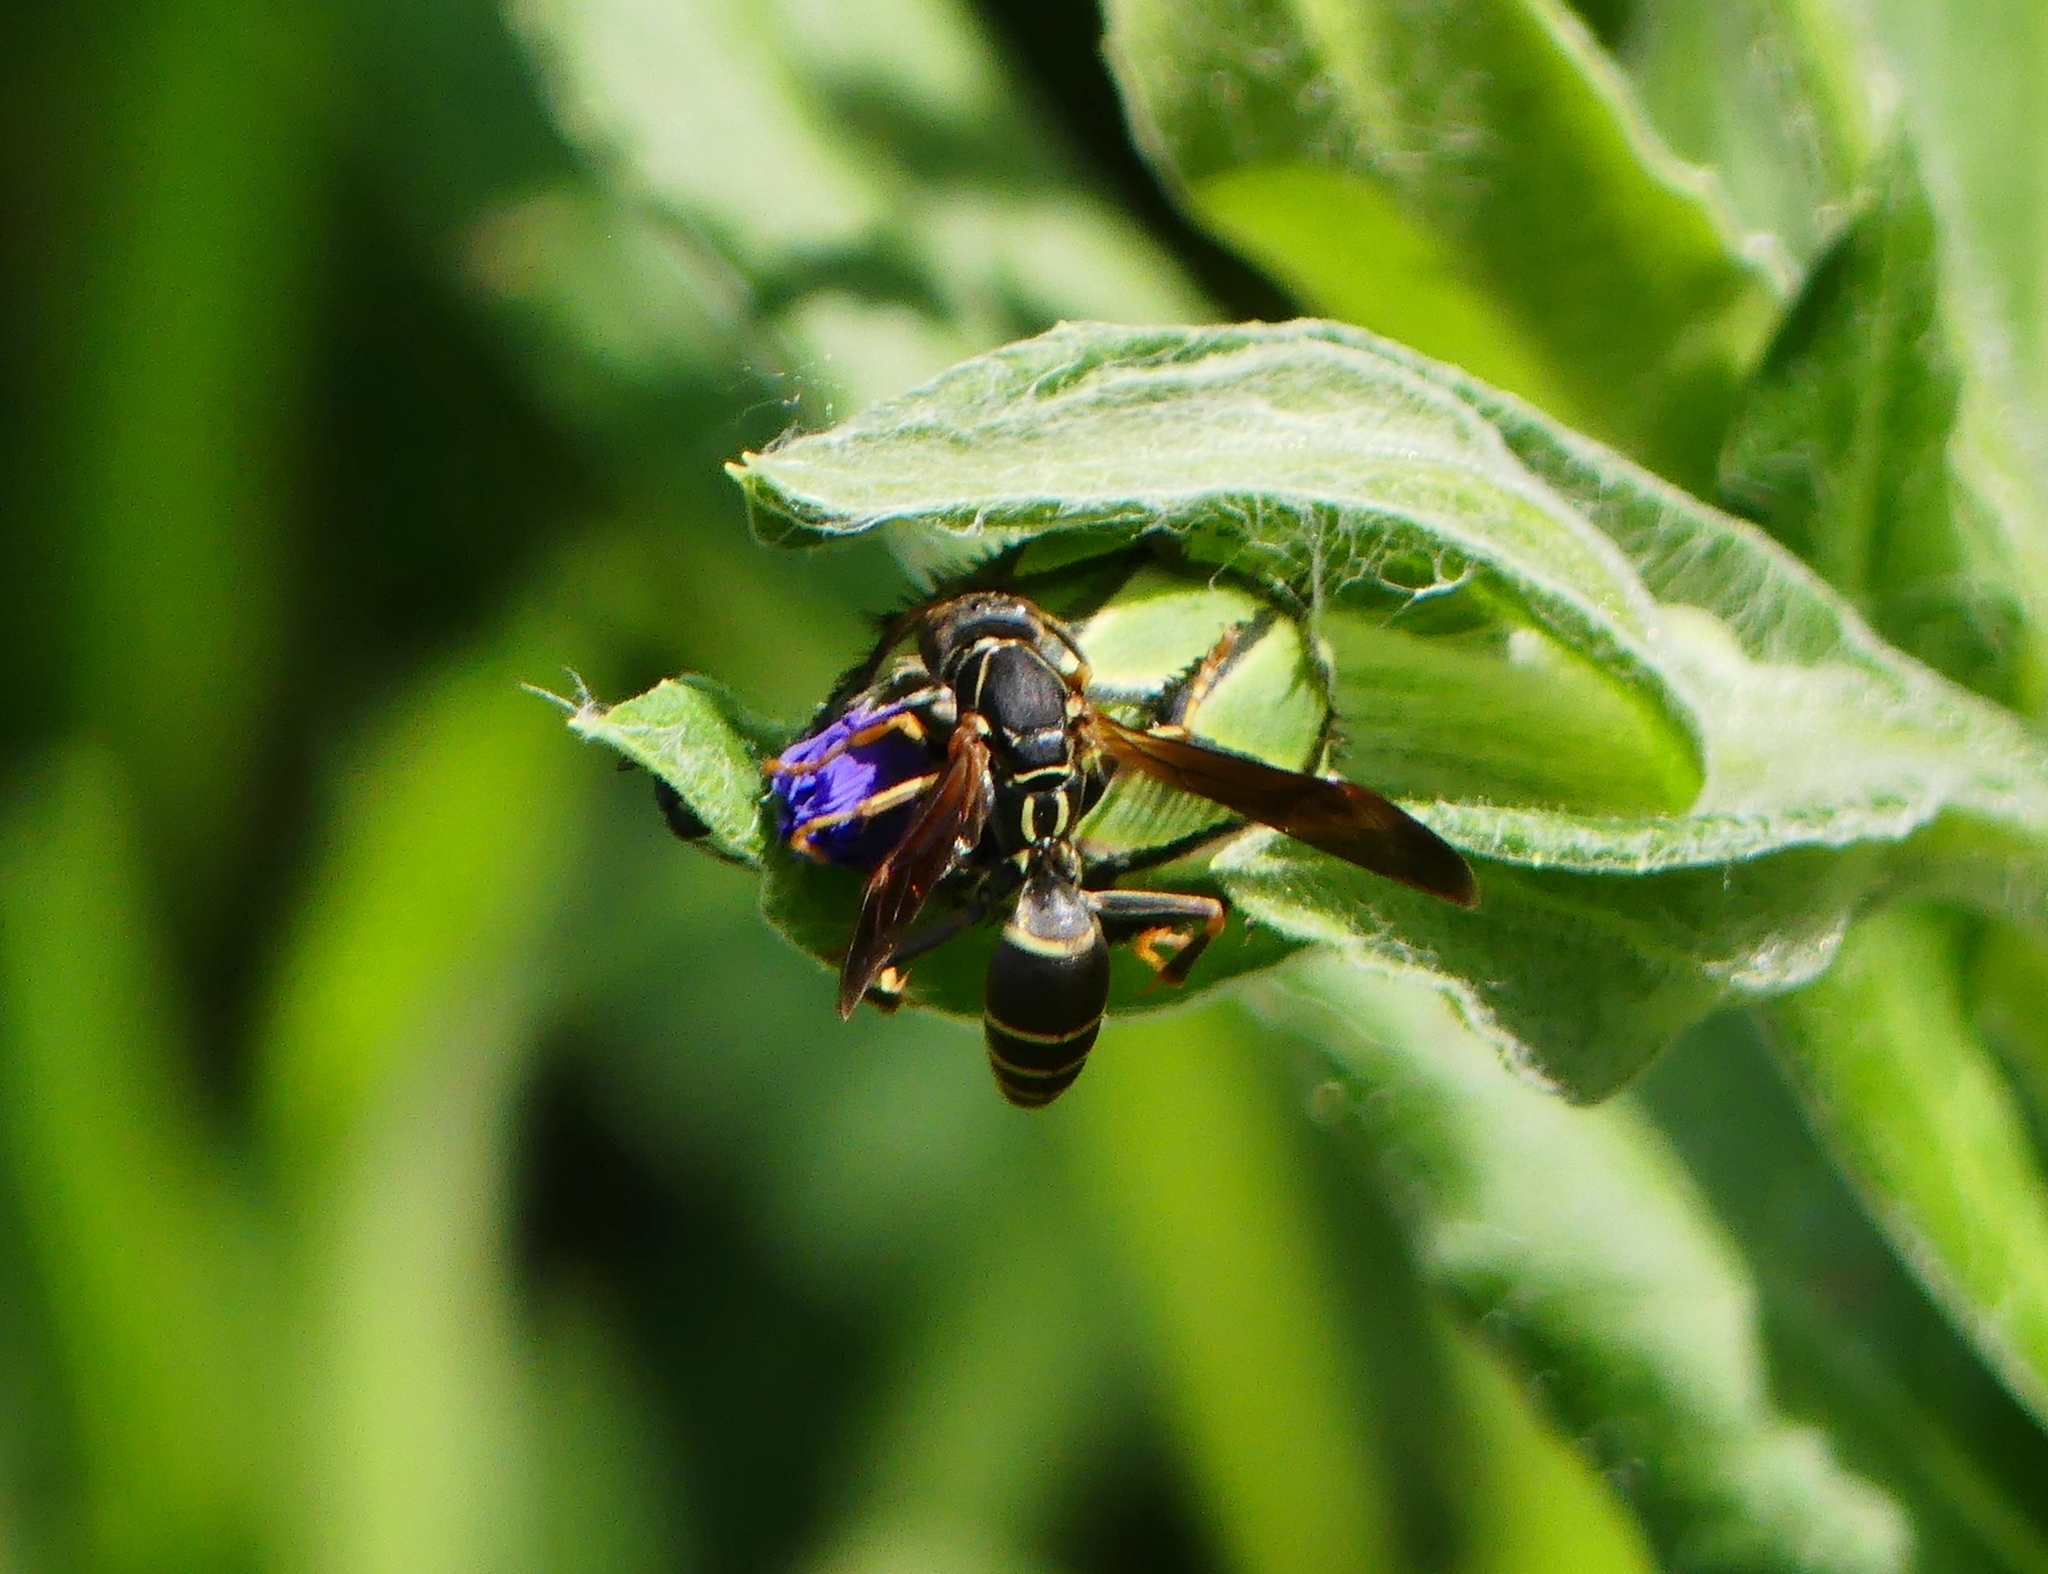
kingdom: Animalia
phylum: Arthropoda
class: Insecta
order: Hymenoptera
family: Eumenidae
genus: Polistes
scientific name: Polistes fuscatus
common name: Dark paper wasp
